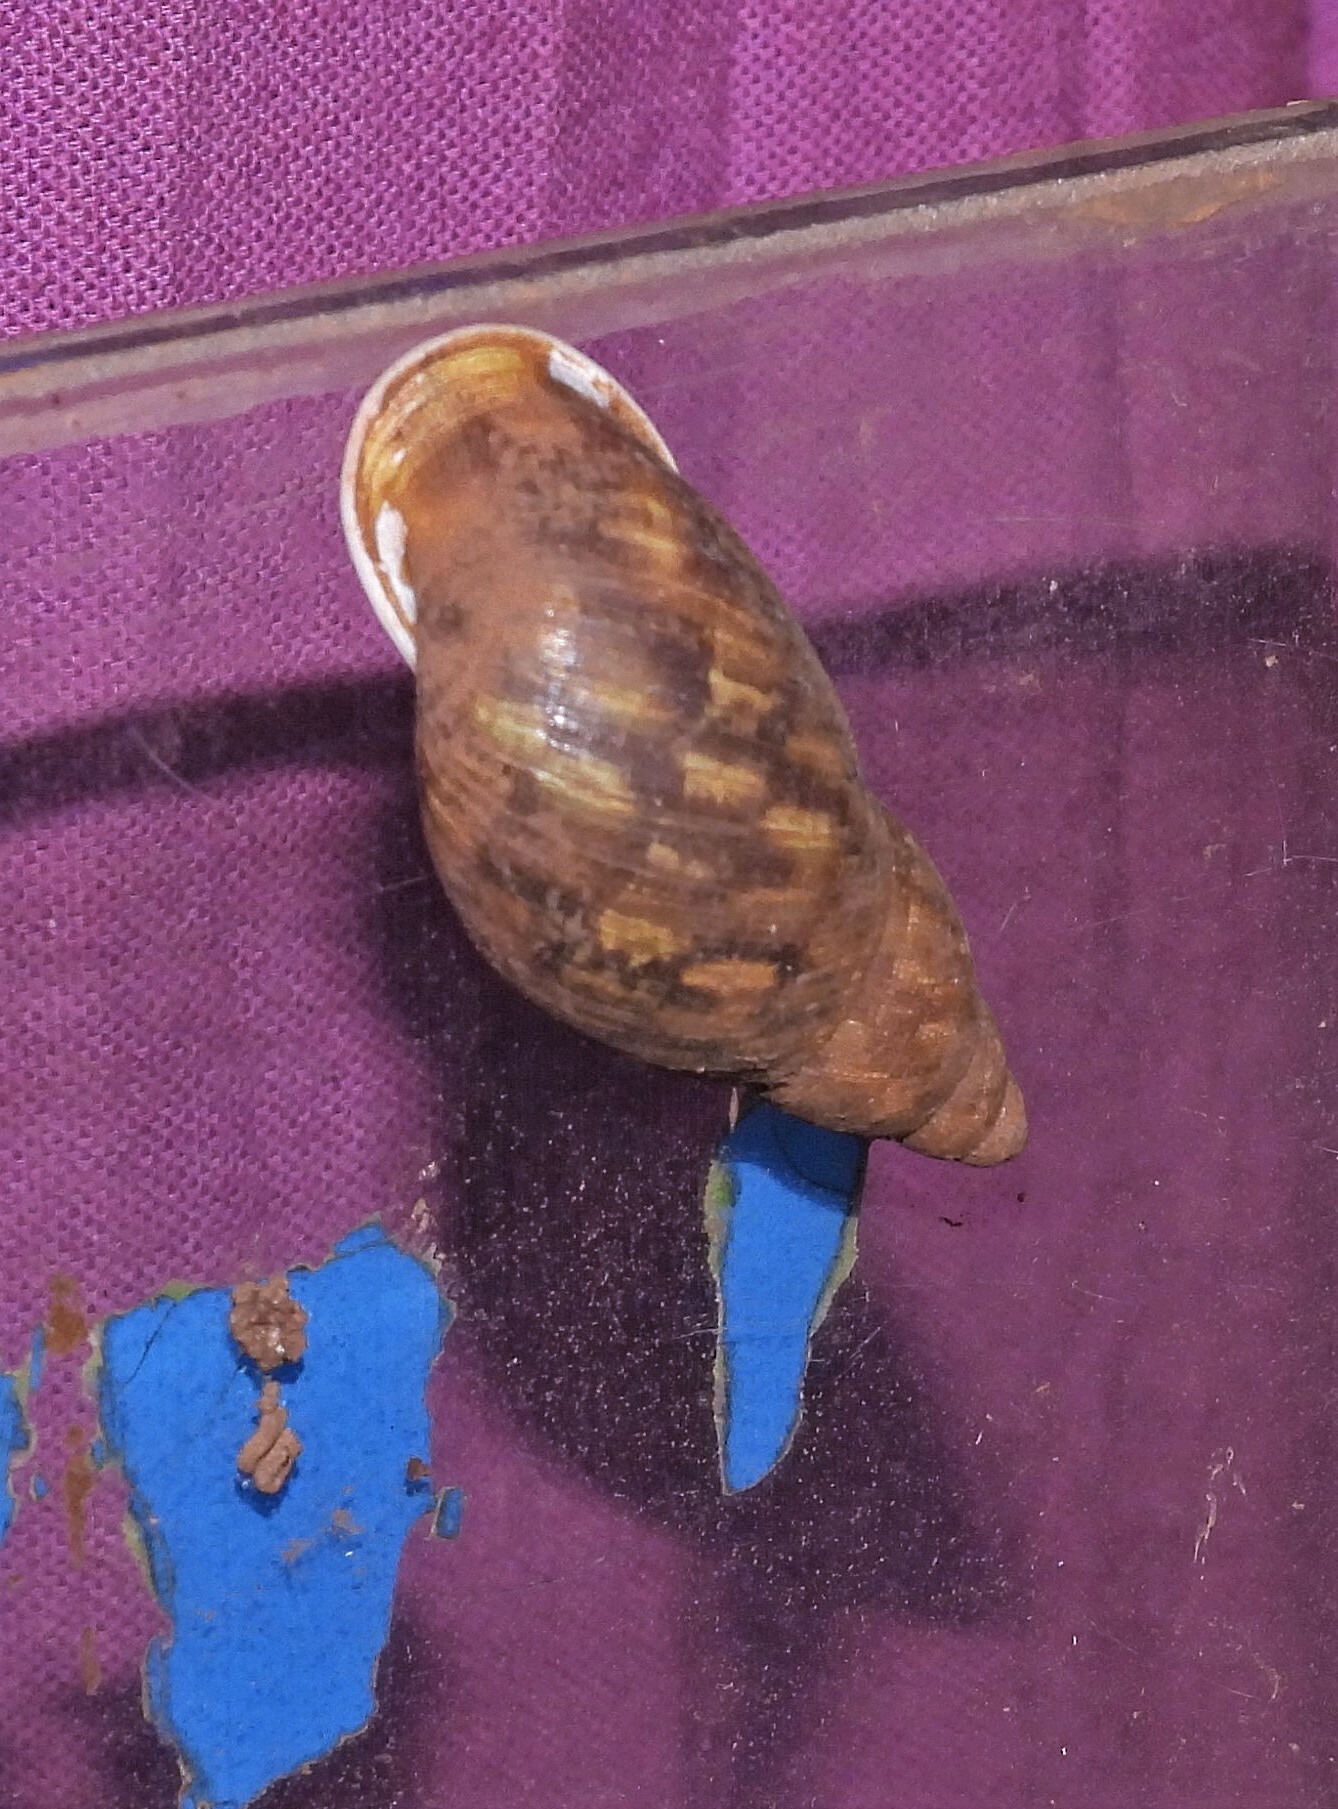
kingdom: Animalia
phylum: Mollusca
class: Gastropoda
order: Stylommatophora
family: Strophocheilidae
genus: Anthinus
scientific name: Anthinus albolabiatus
